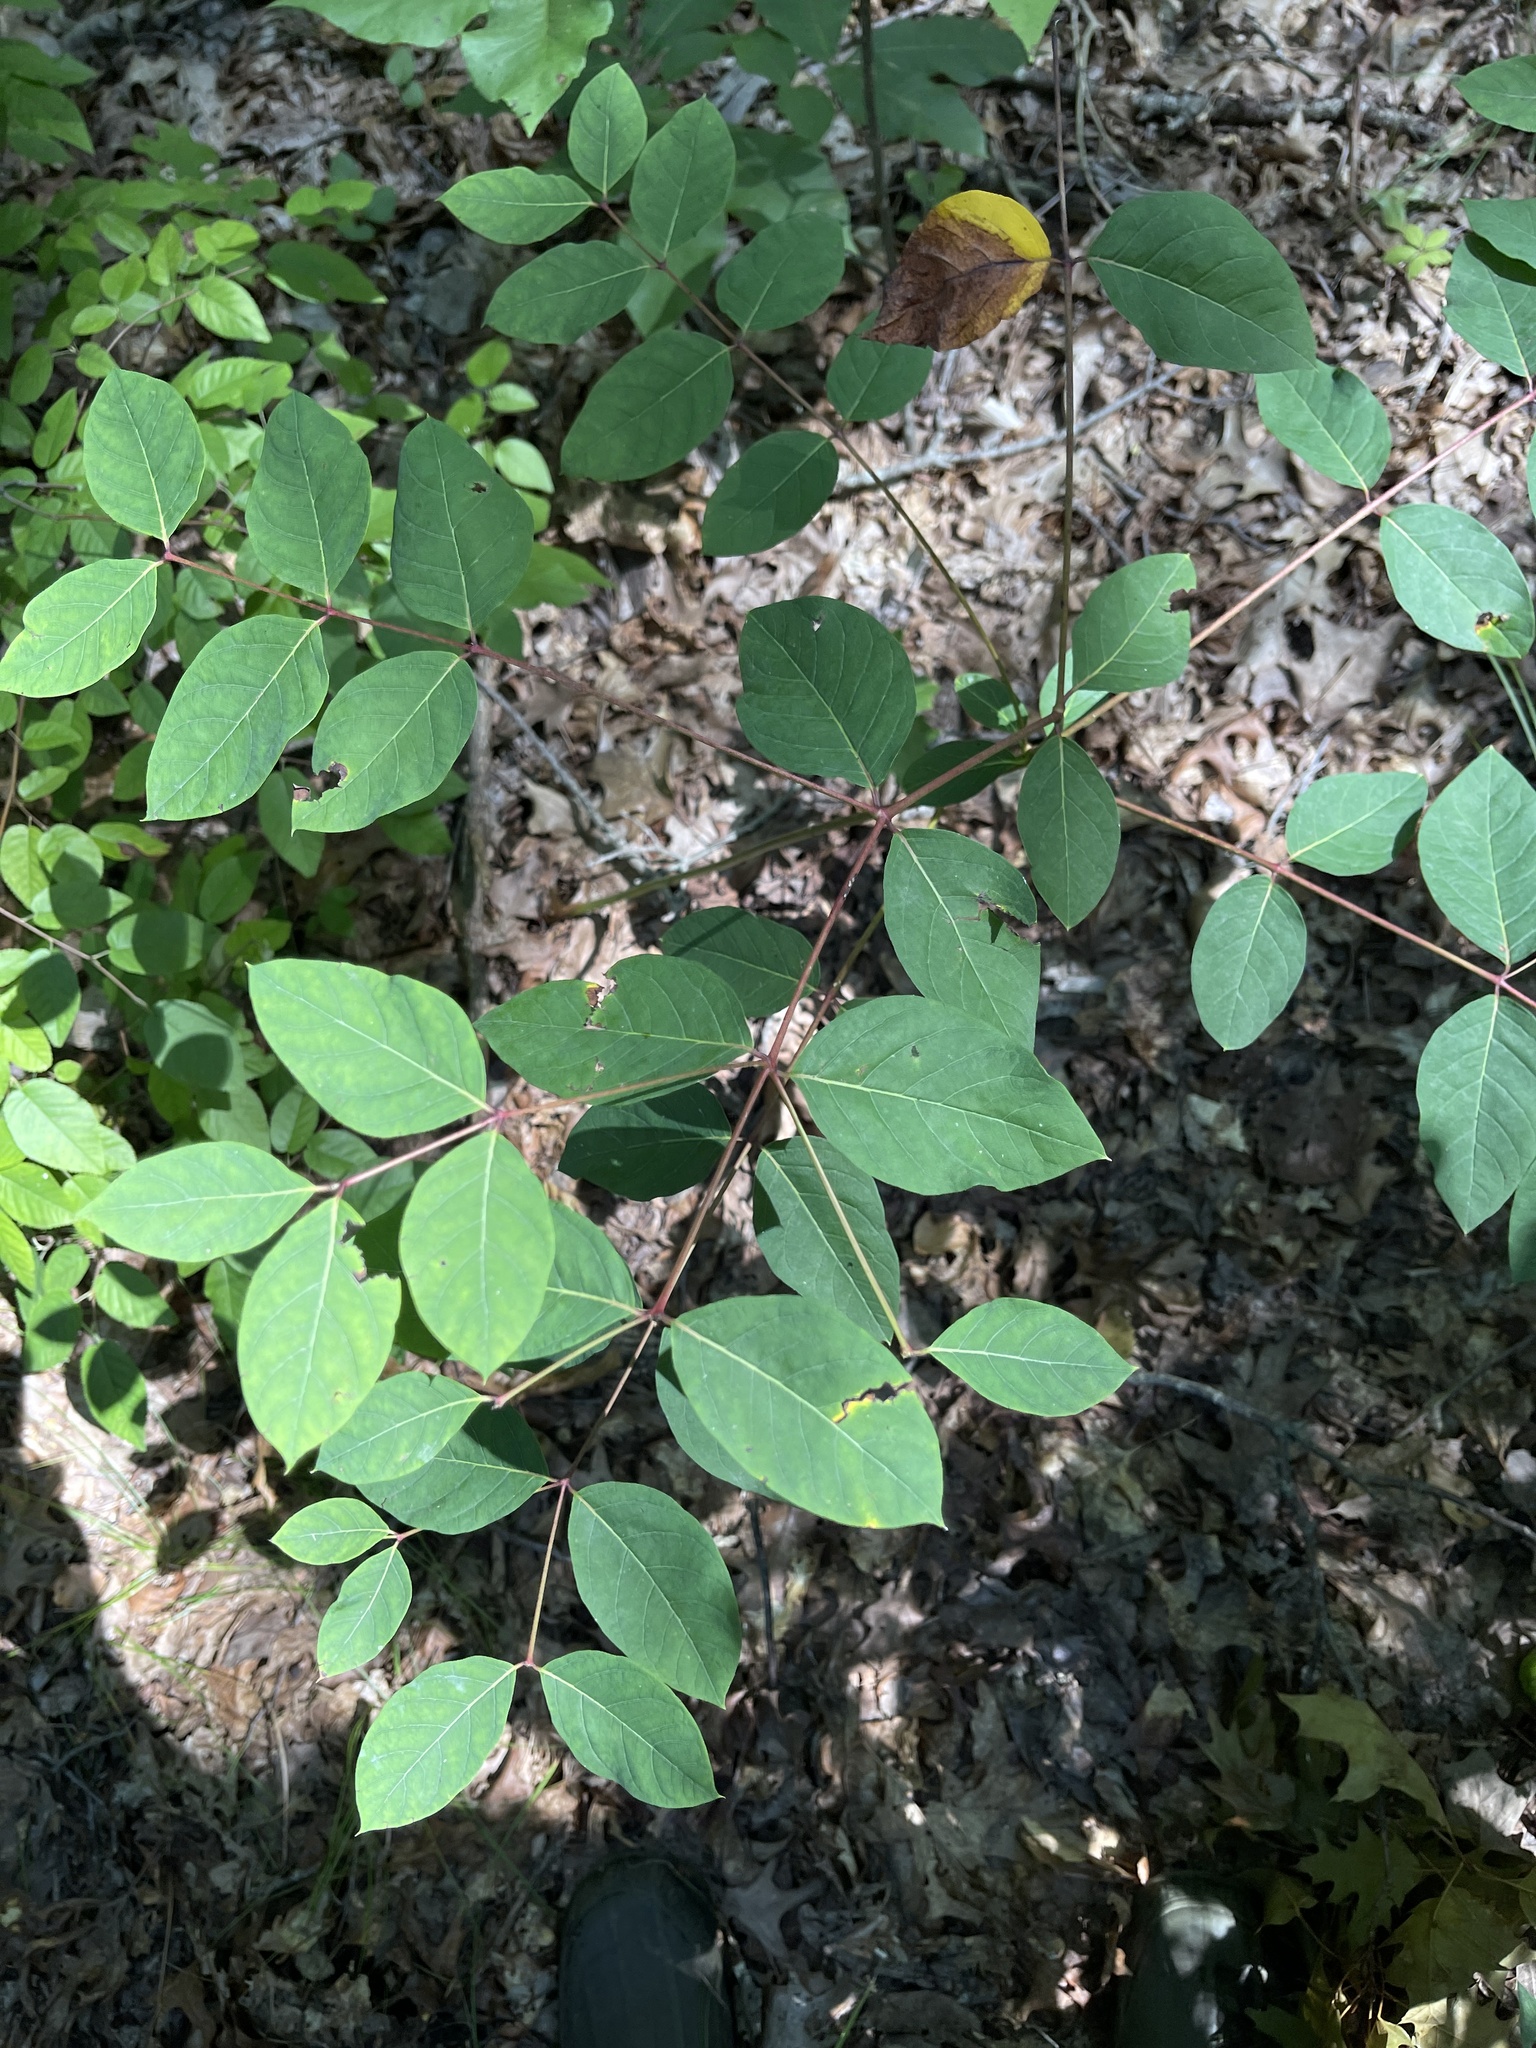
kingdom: Plantae
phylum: Tracheophyta
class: Magnoliopsida
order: Gentianales
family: Apocynaceae
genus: Apocynum
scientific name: Apocynum androsaemifolium
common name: Spreading dogbane
